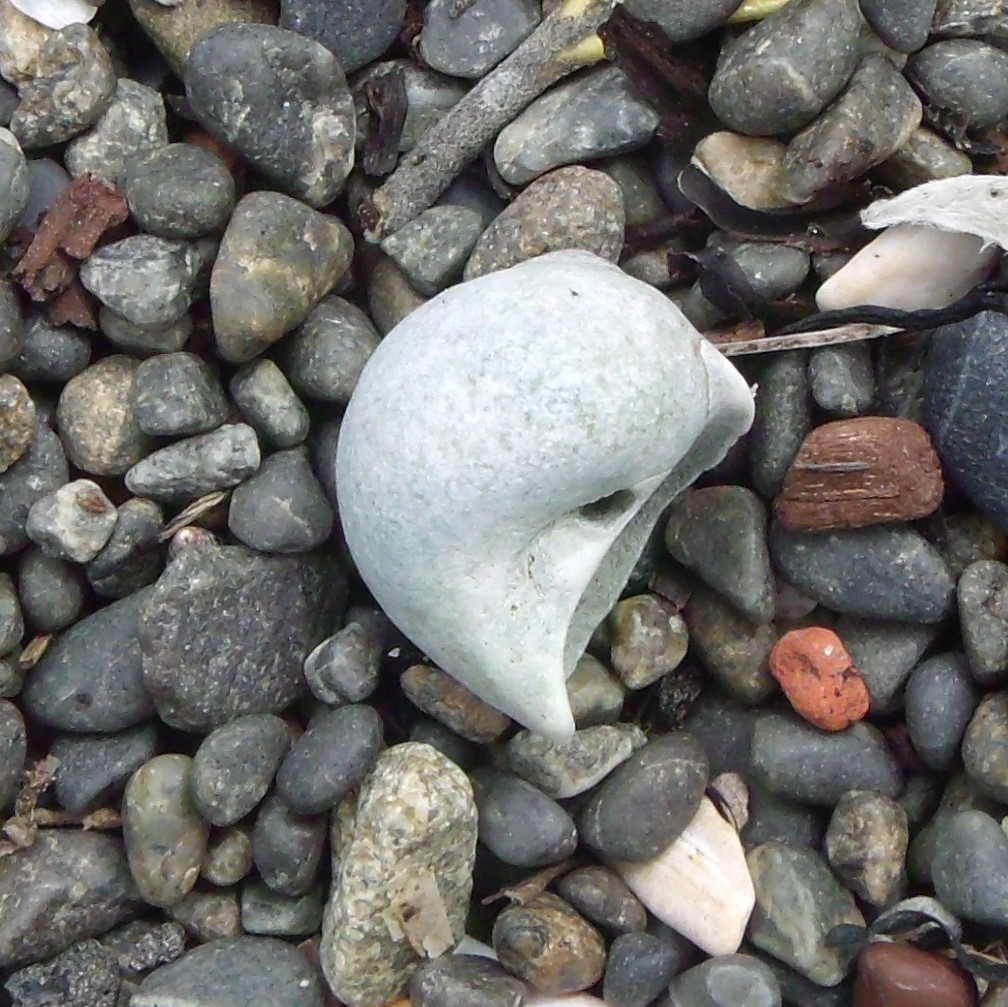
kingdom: Animalia
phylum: Mollusca
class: Gastropoda
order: Littorinimorpha
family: Naticidae
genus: Tanea
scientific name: Tanea zelandica
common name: New zealand moonsnail
